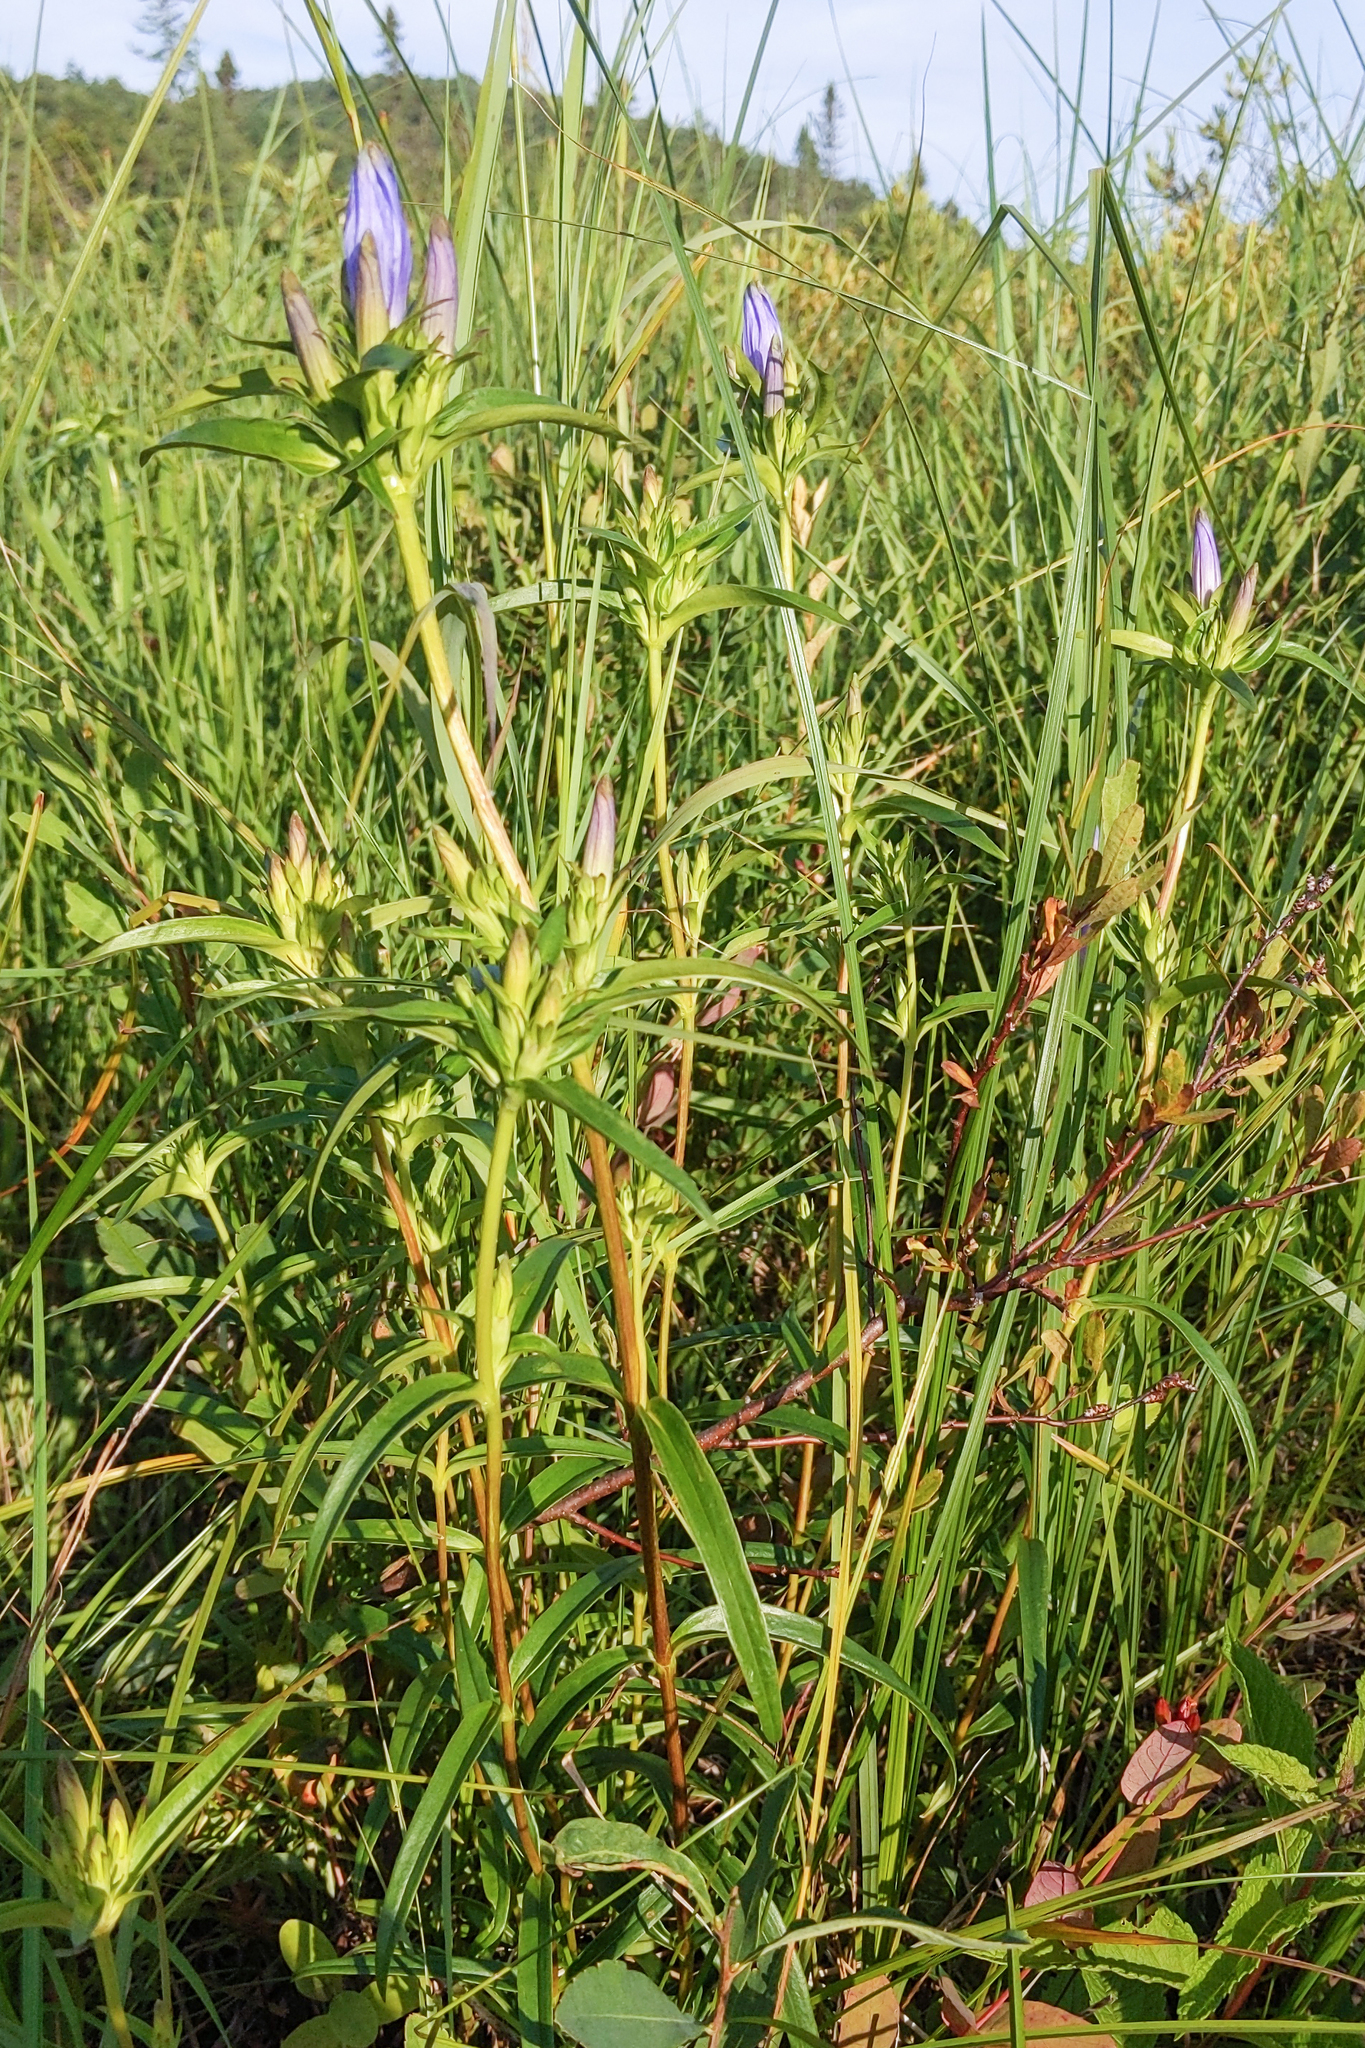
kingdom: Plantae
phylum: Tracheophyta
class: Magnoliopsida
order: Gentianales
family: Gentianaceae
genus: Gentiana
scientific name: Gentiana linearis
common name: Bastard gentian
